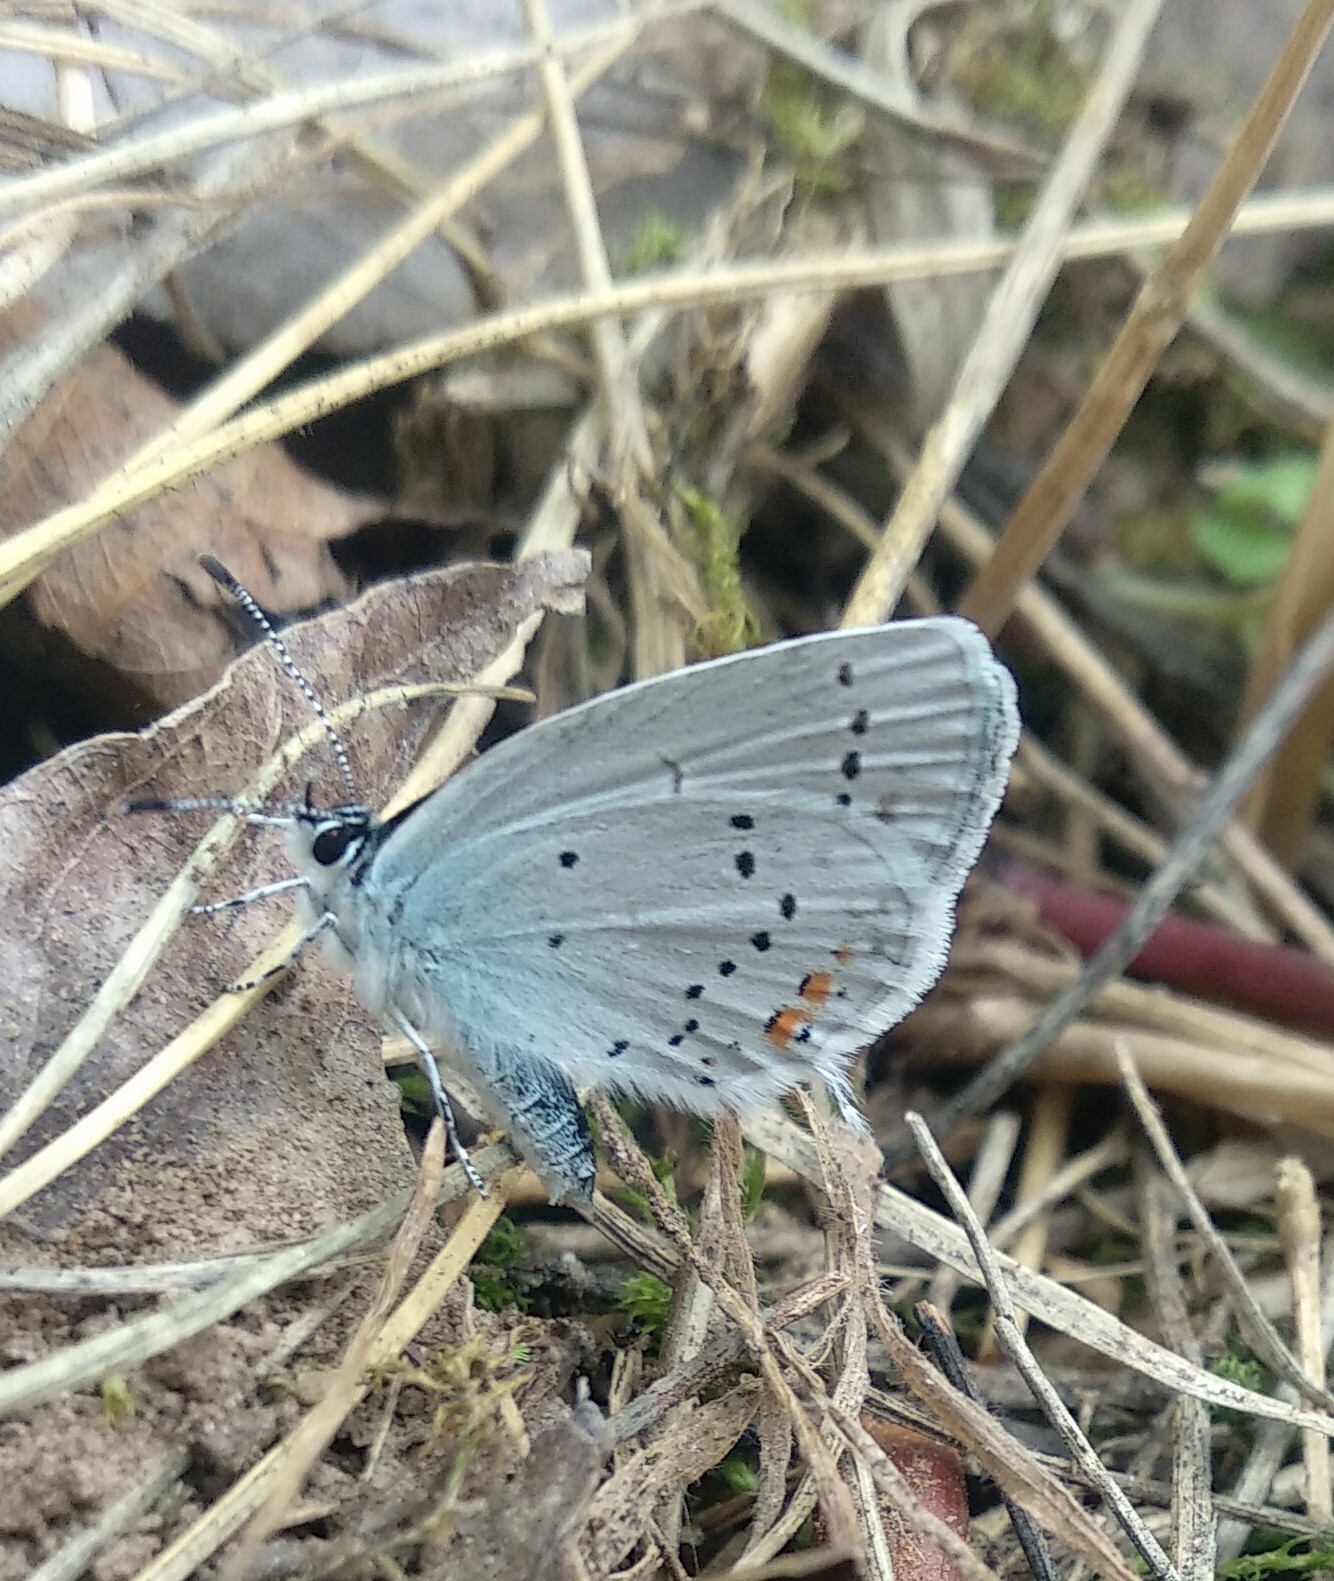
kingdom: Animalia
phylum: Arthropoda
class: Insecta
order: Lepidoptera
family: Lycaenidae
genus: Elkalyce
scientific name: Elkalyce argiades
